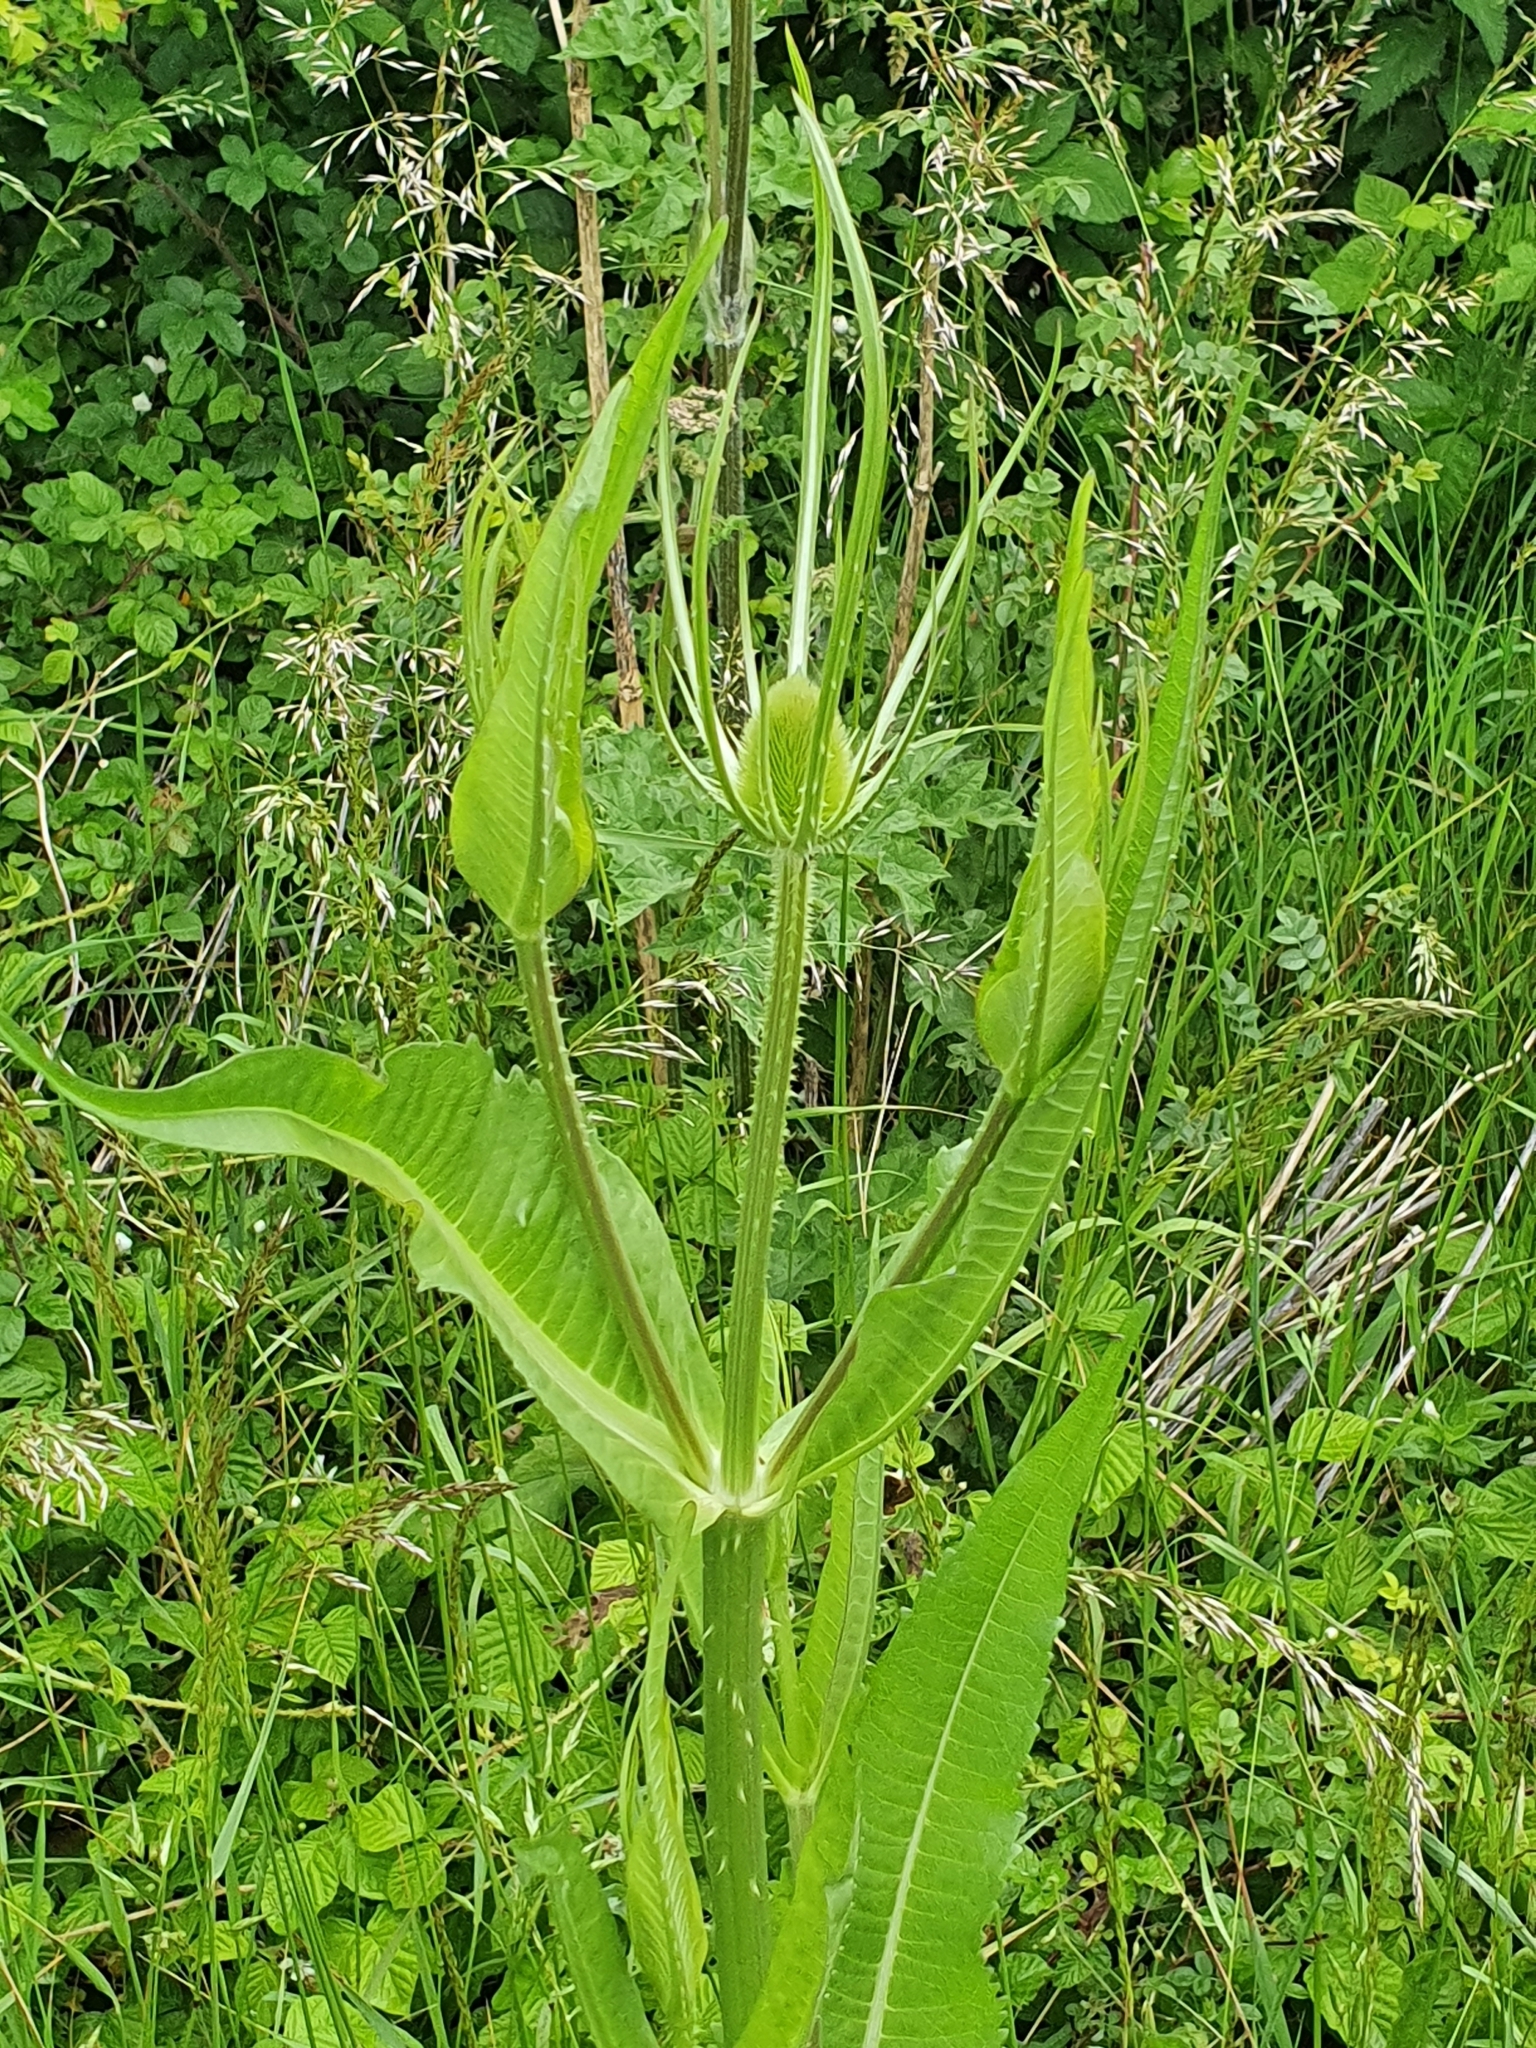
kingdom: Plantae
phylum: Tracheophyta
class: Magnoliopsida
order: Dipsacales
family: Caprifoliaceae
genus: Dipsacus
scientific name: Dipsacus fullonum
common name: Teasel
